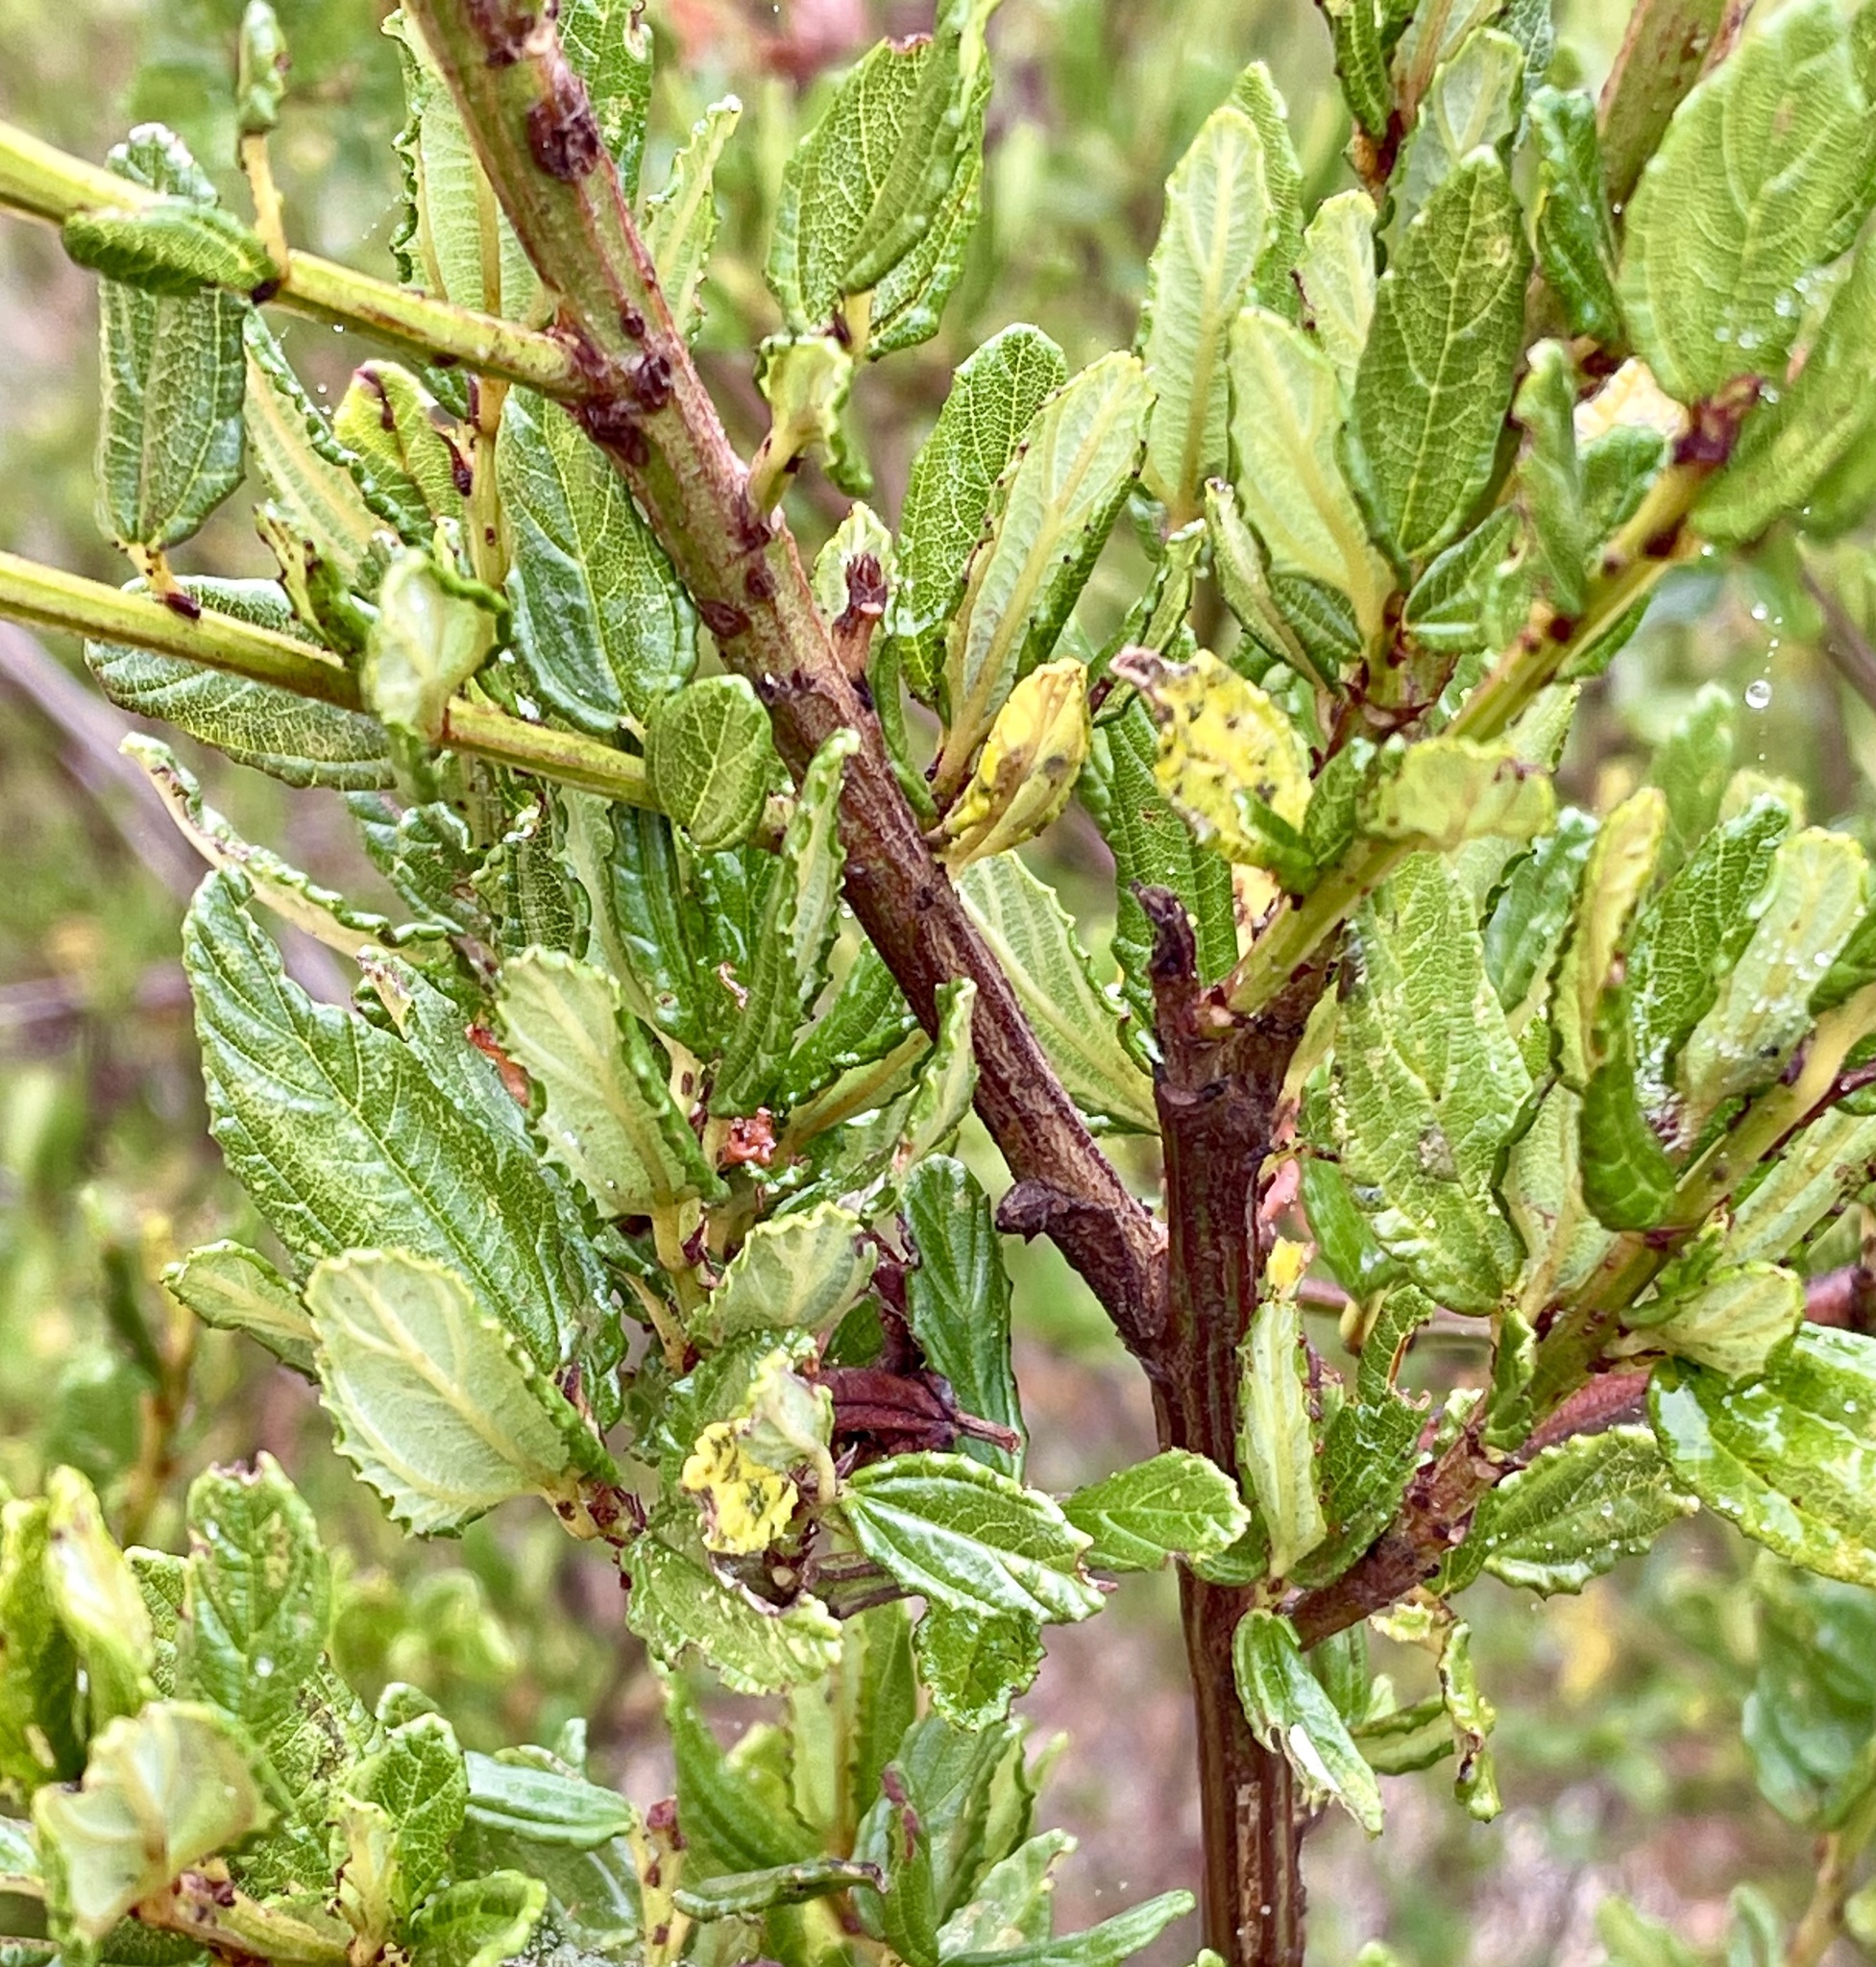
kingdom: Plantae
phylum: Tracheophyta
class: Magnoliopsida
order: Rosales
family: Rhamnaceae
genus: Ceanothus
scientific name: Ceanothus thyrsiflorus
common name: California-lilac
